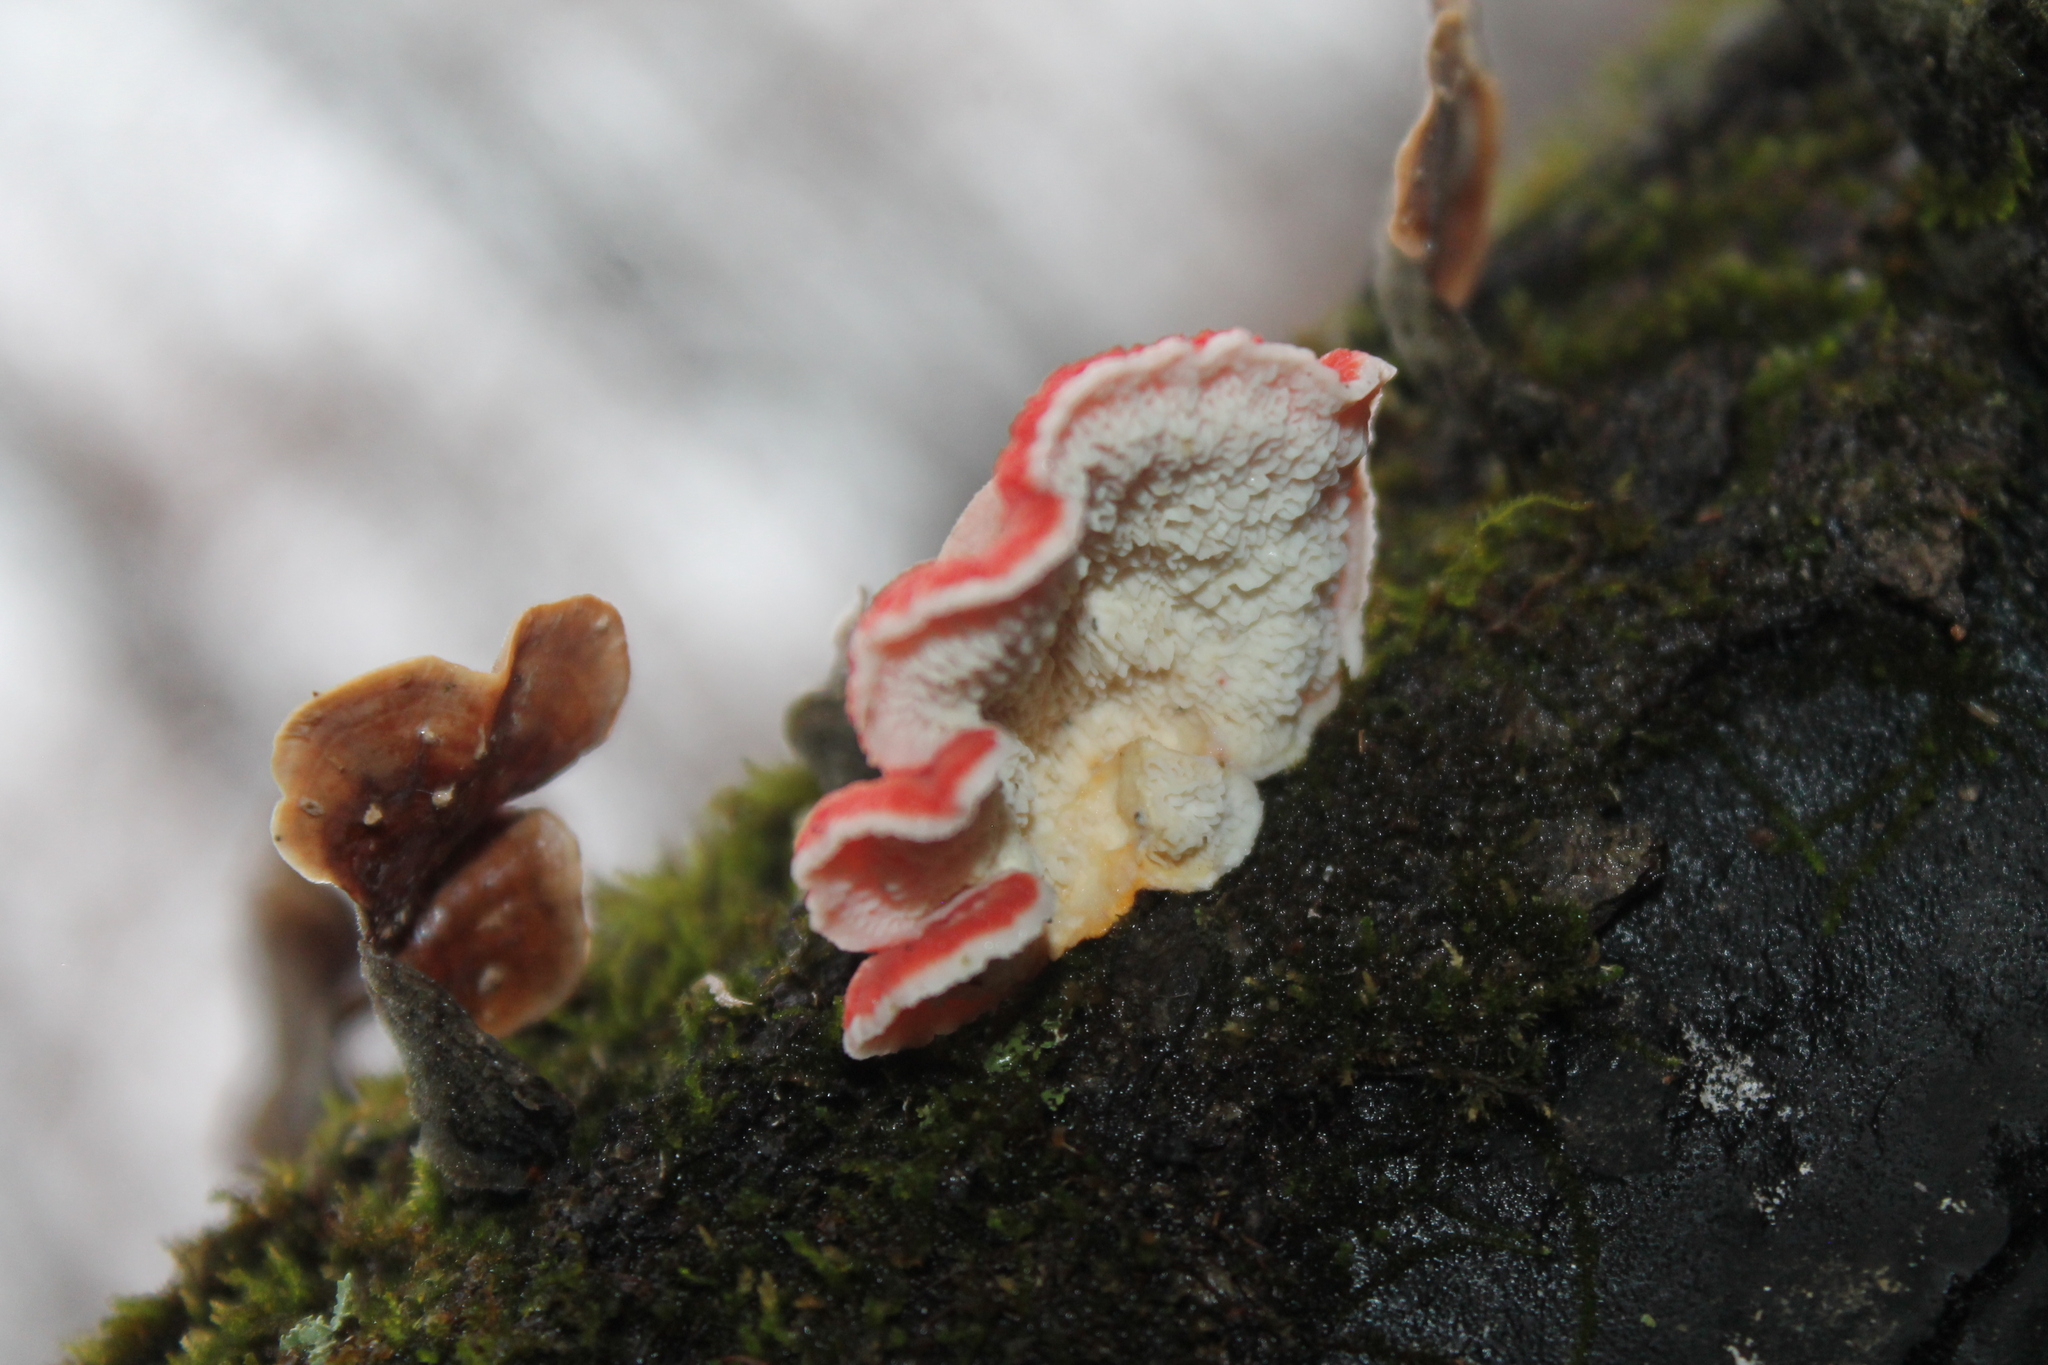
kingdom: Fungi
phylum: Basidiomycota
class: Agaricomycetes
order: Polyporales
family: Irpicaceae
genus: Byssomerulius
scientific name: Byssomerulius incarnatus
